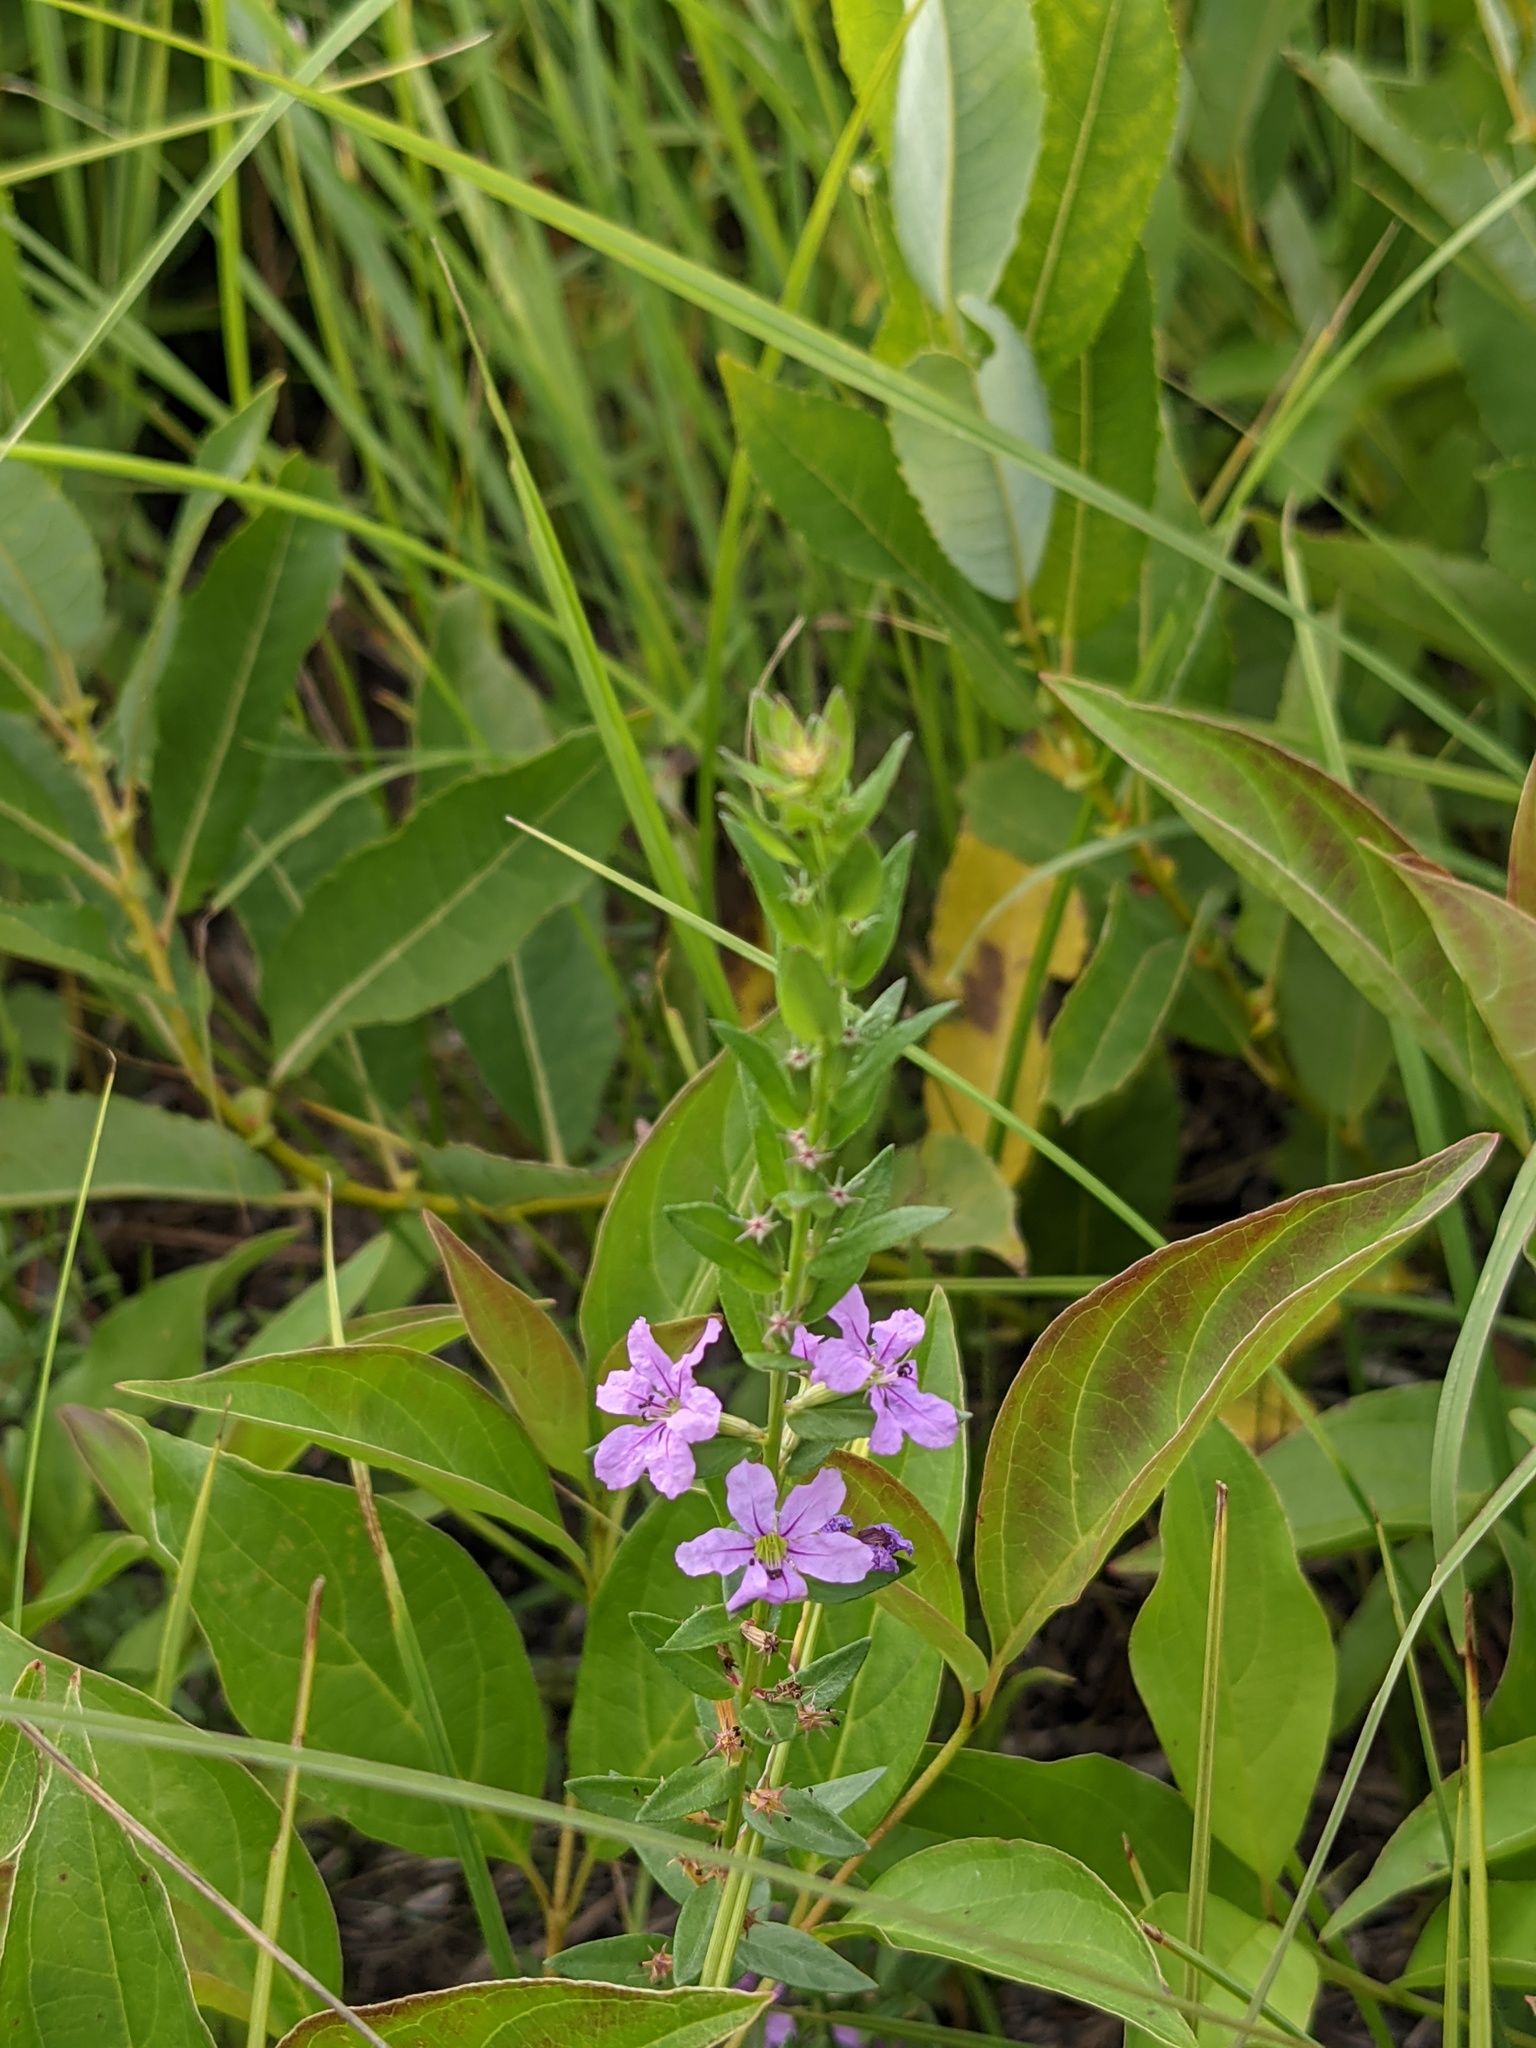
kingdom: Plantae
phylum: Tracheophyta
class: Magnoliopsida
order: Myrtales
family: Lythraceae
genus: Lythrum
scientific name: Lythrum alatum
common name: Winged loosestrife
